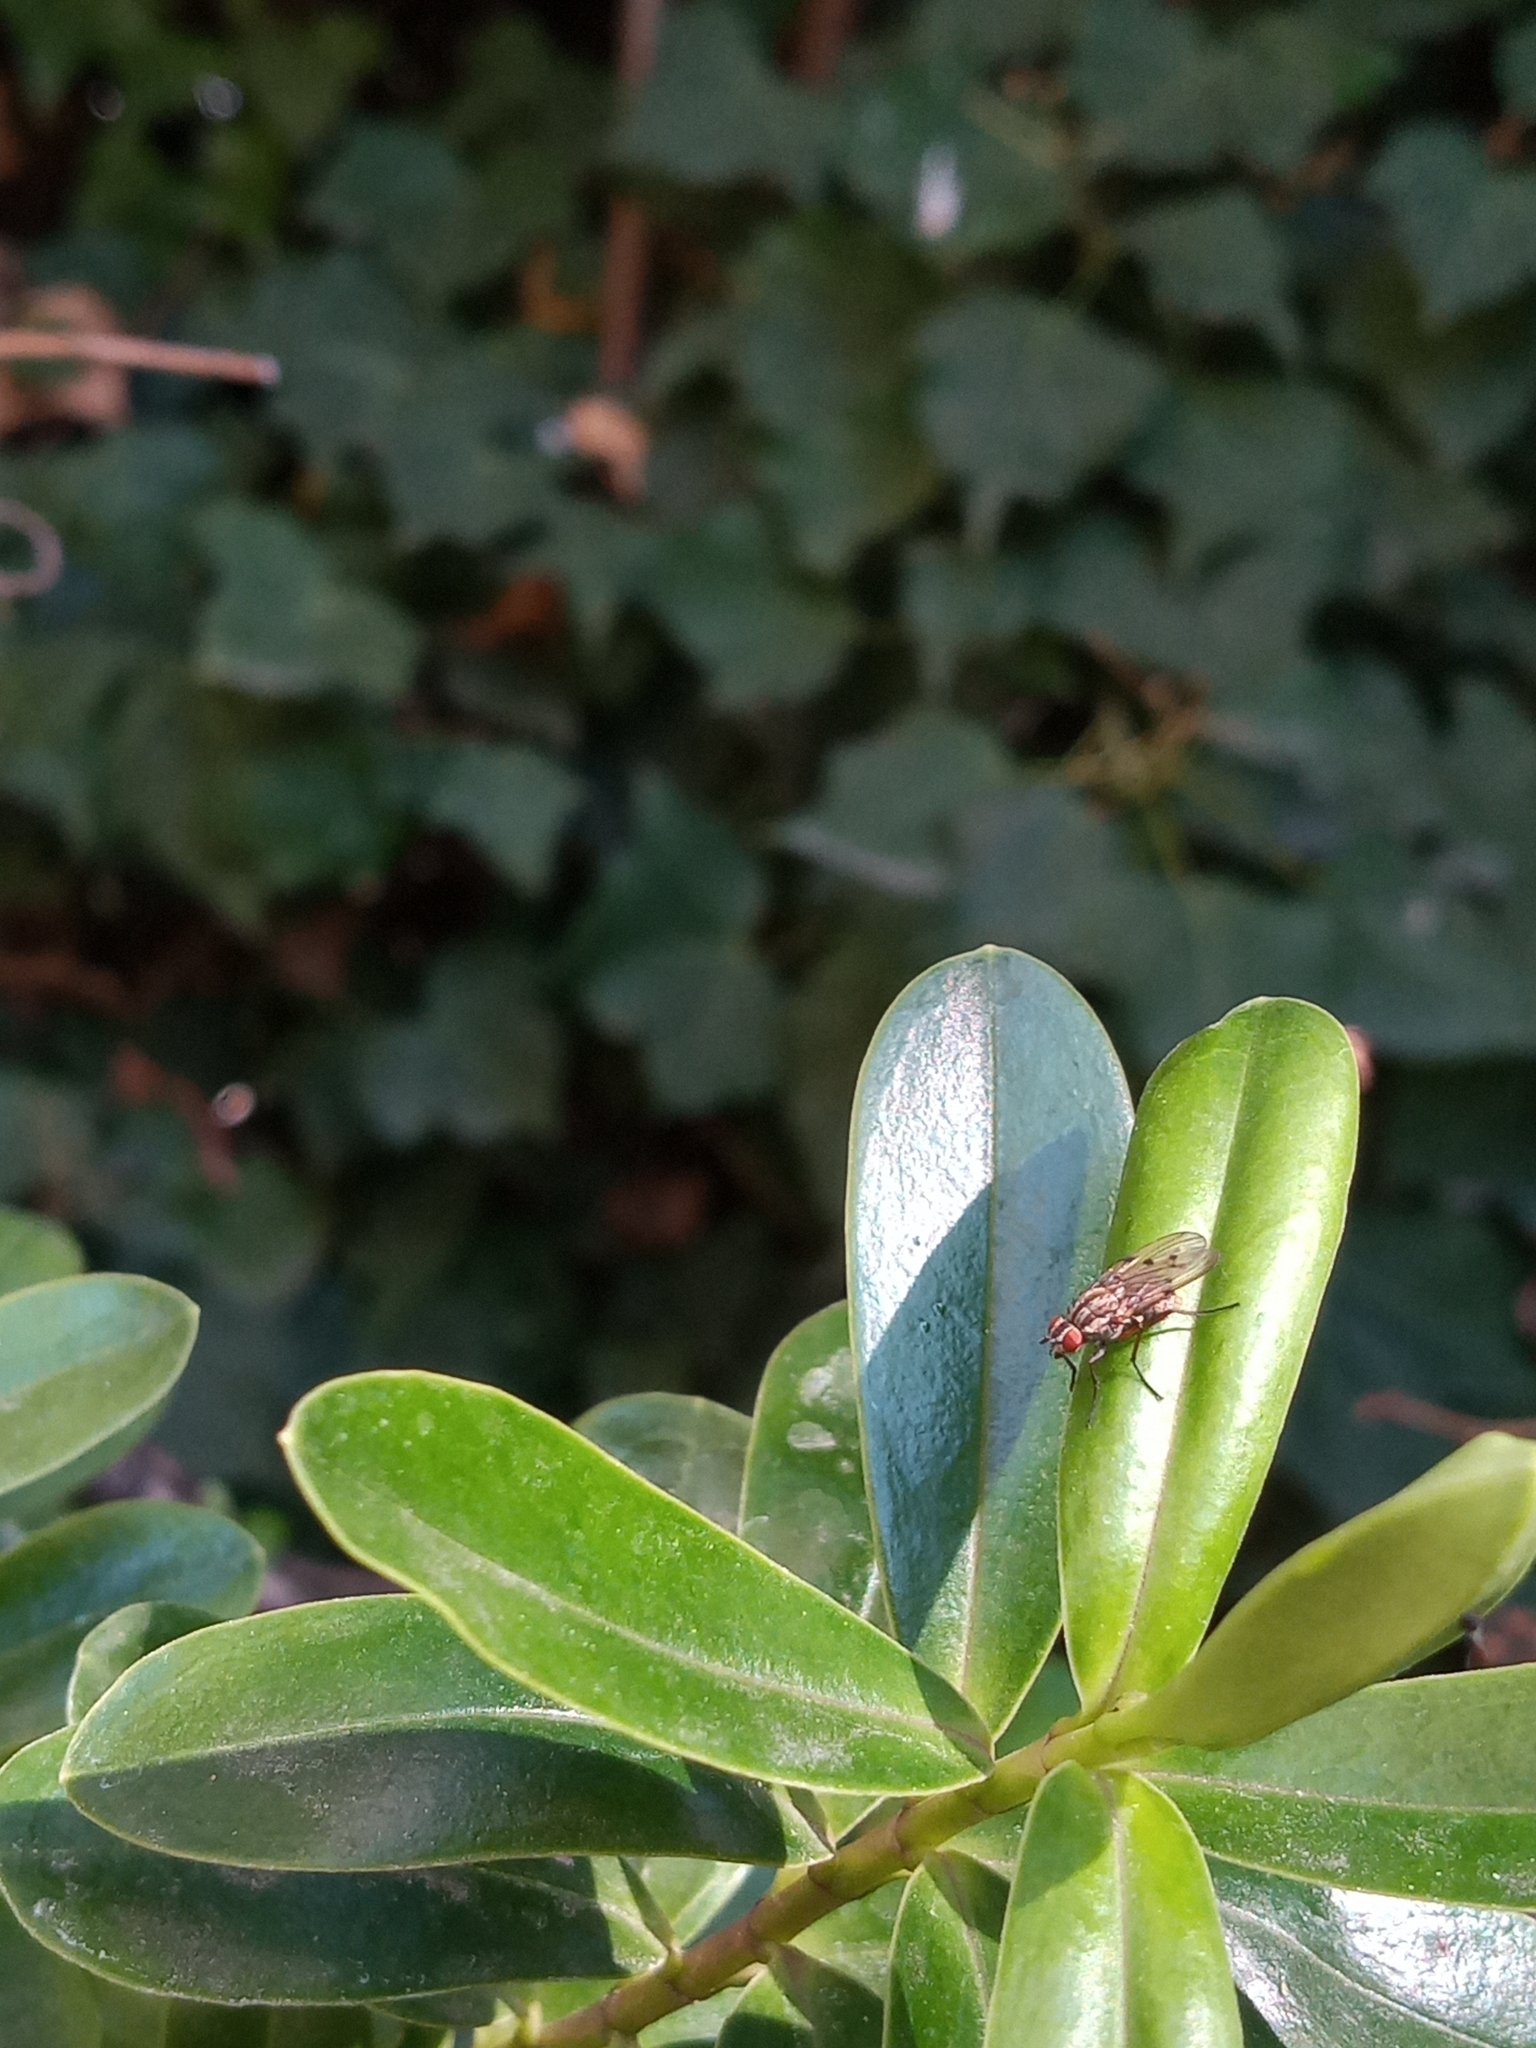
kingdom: Animalia
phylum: Arthropoda
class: Insecta
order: Diptera
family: Anthomyiidae
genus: Anthomyia
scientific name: Anthomyia punctipennis
